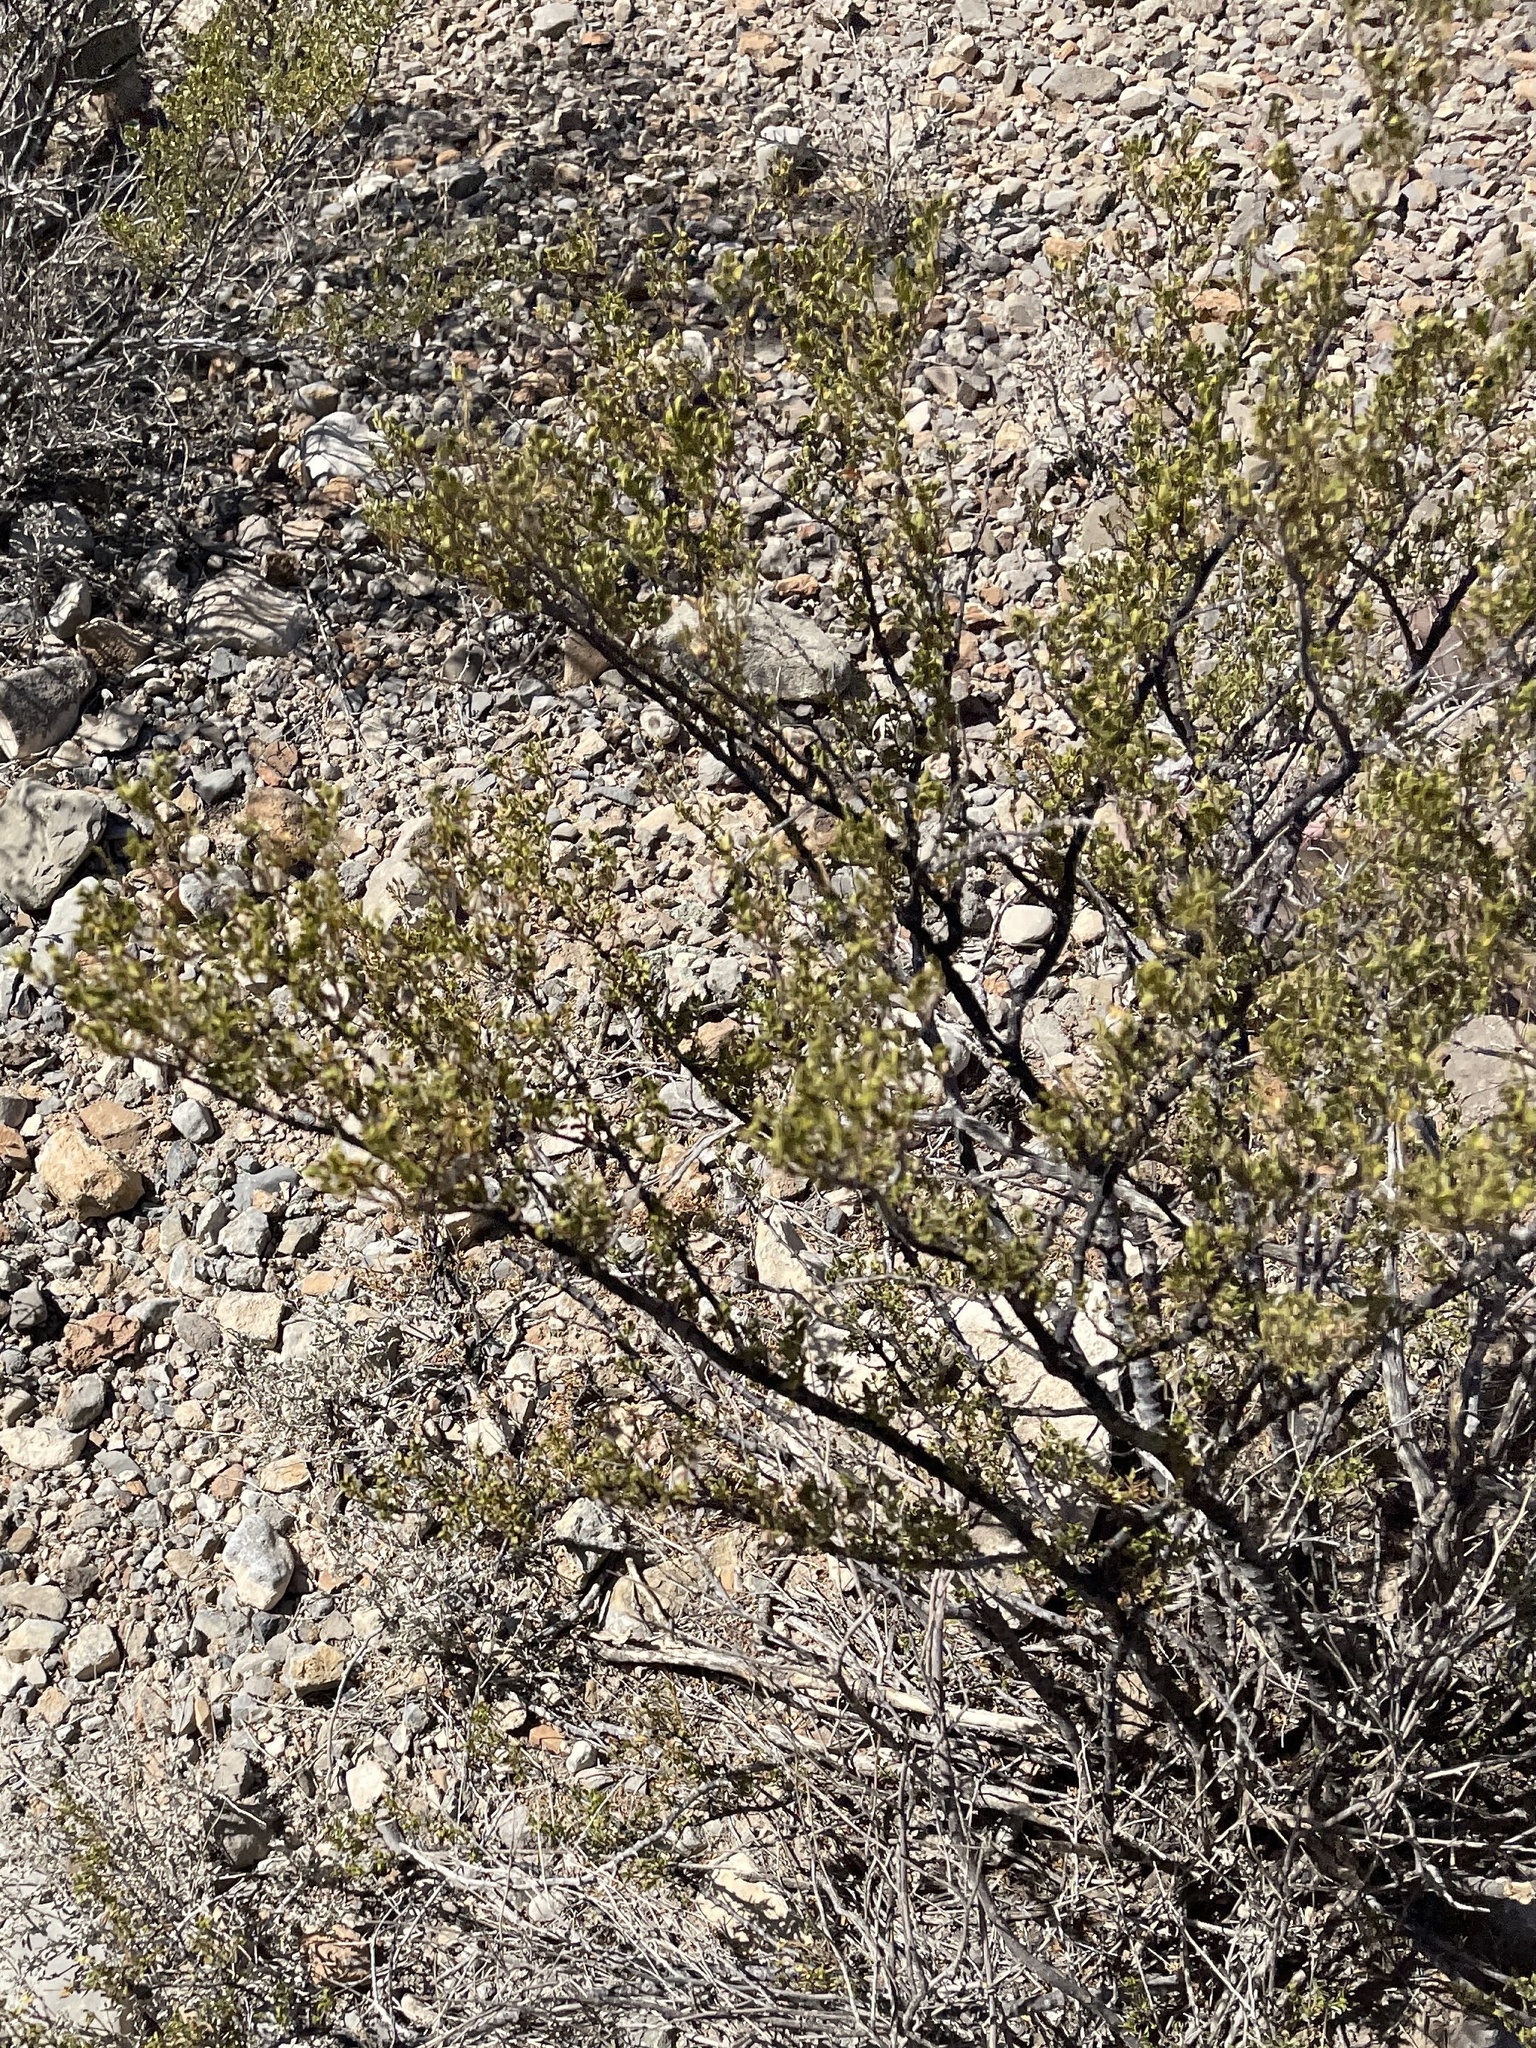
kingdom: Plantae
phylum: Tracheophyta
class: Magnoliopsida
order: Zygophyllales
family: Zygophyllaceae
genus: Larrea
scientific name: Larrea tridentata
